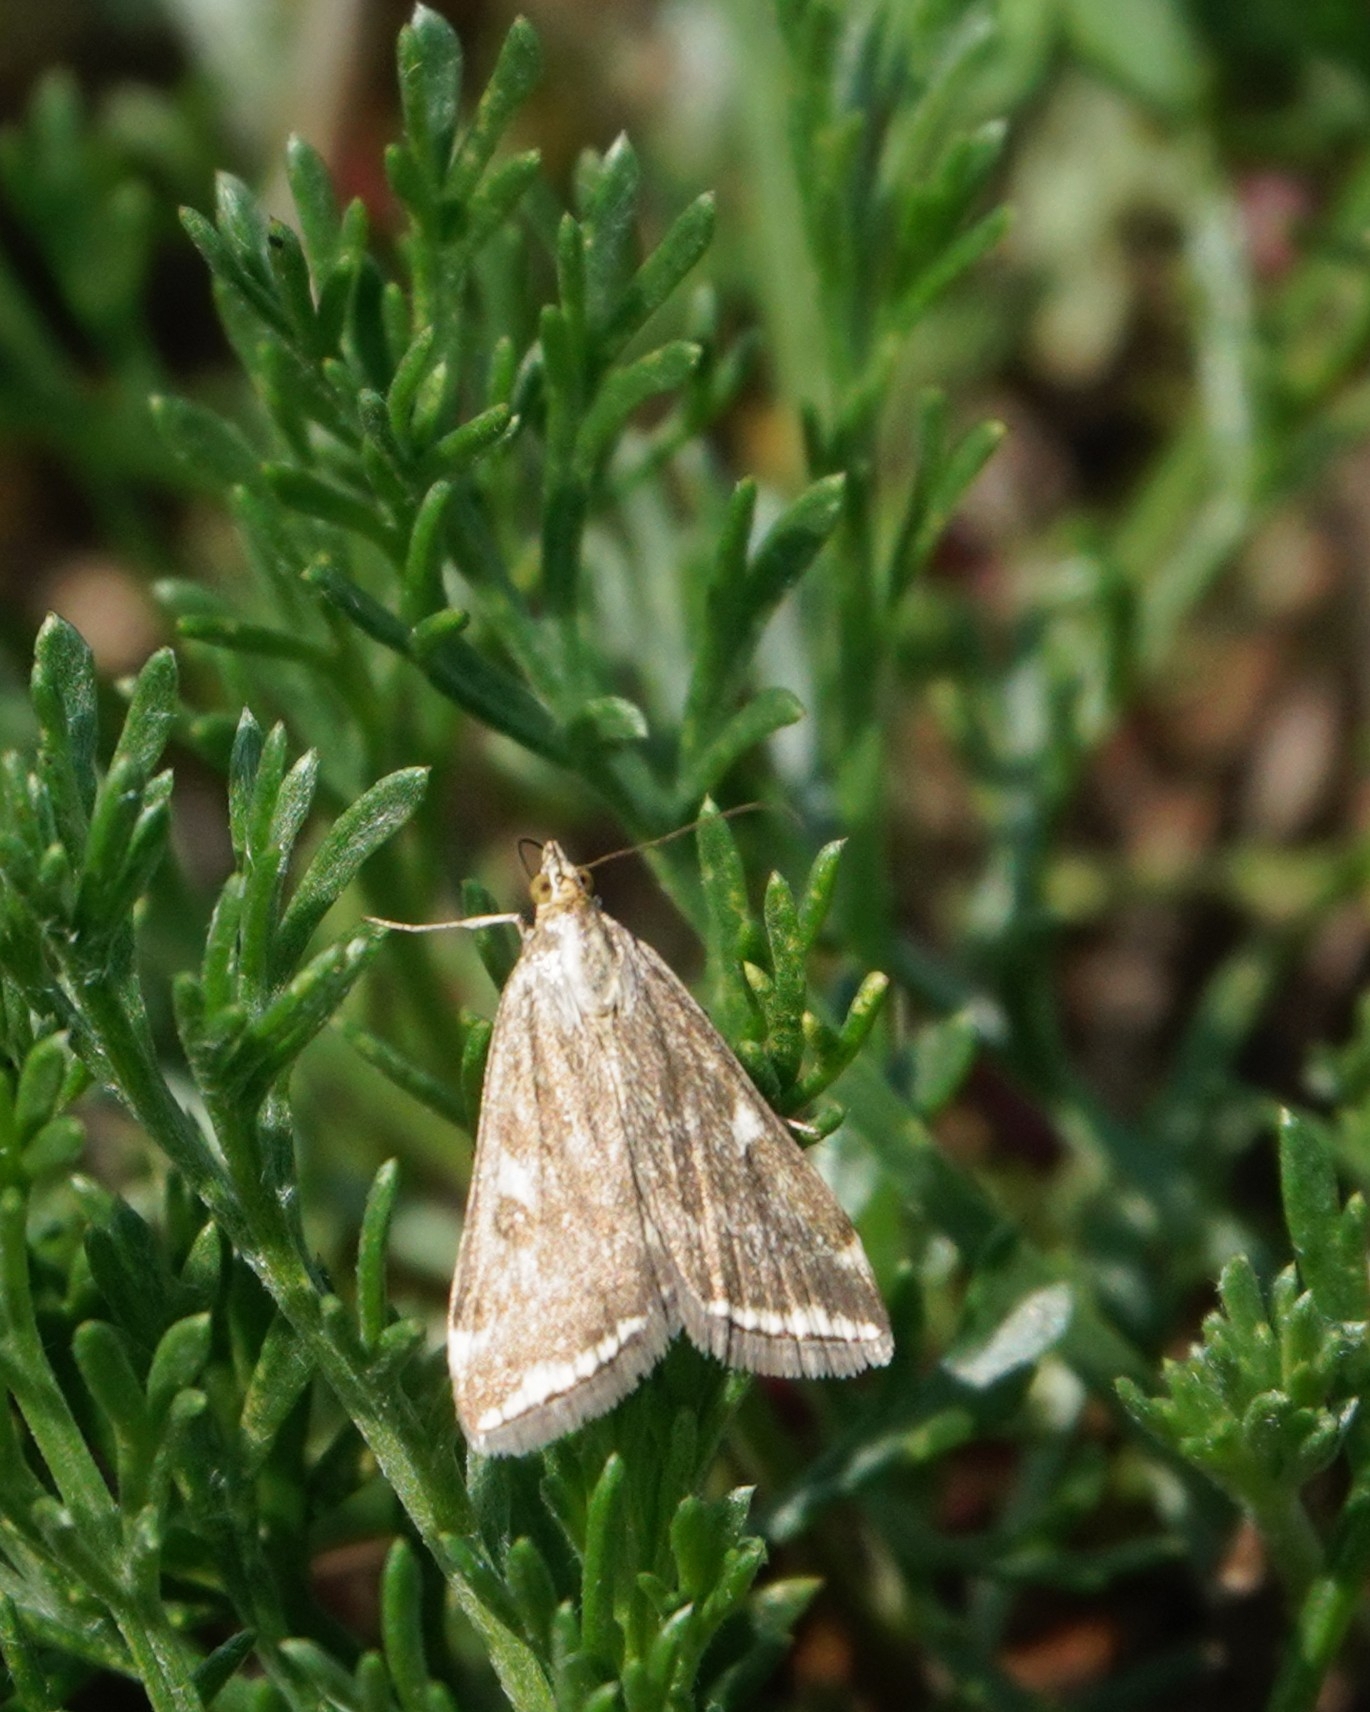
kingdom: Animalia
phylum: Arthropoda
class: Insecta
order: Lepidoptera
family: Crambidae
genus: Loxostege
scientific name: Loxostege sticticalis
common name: Crambid moth
